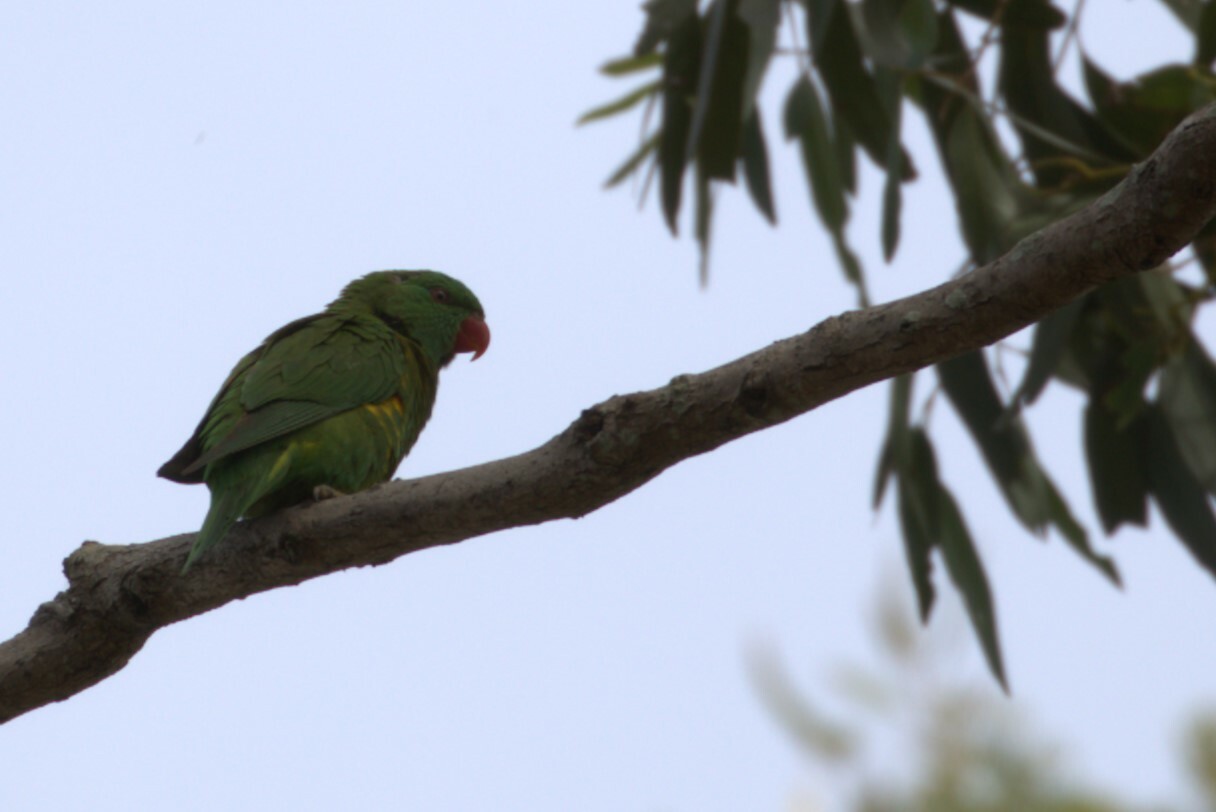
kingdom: Animalia
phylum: Chordata
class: Aves
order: Psittaciformes
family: Psittacidae
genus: Trichoglossus
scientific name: Trichoglossus chlorolepidotus
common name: Scaly-breasted lorikeet
